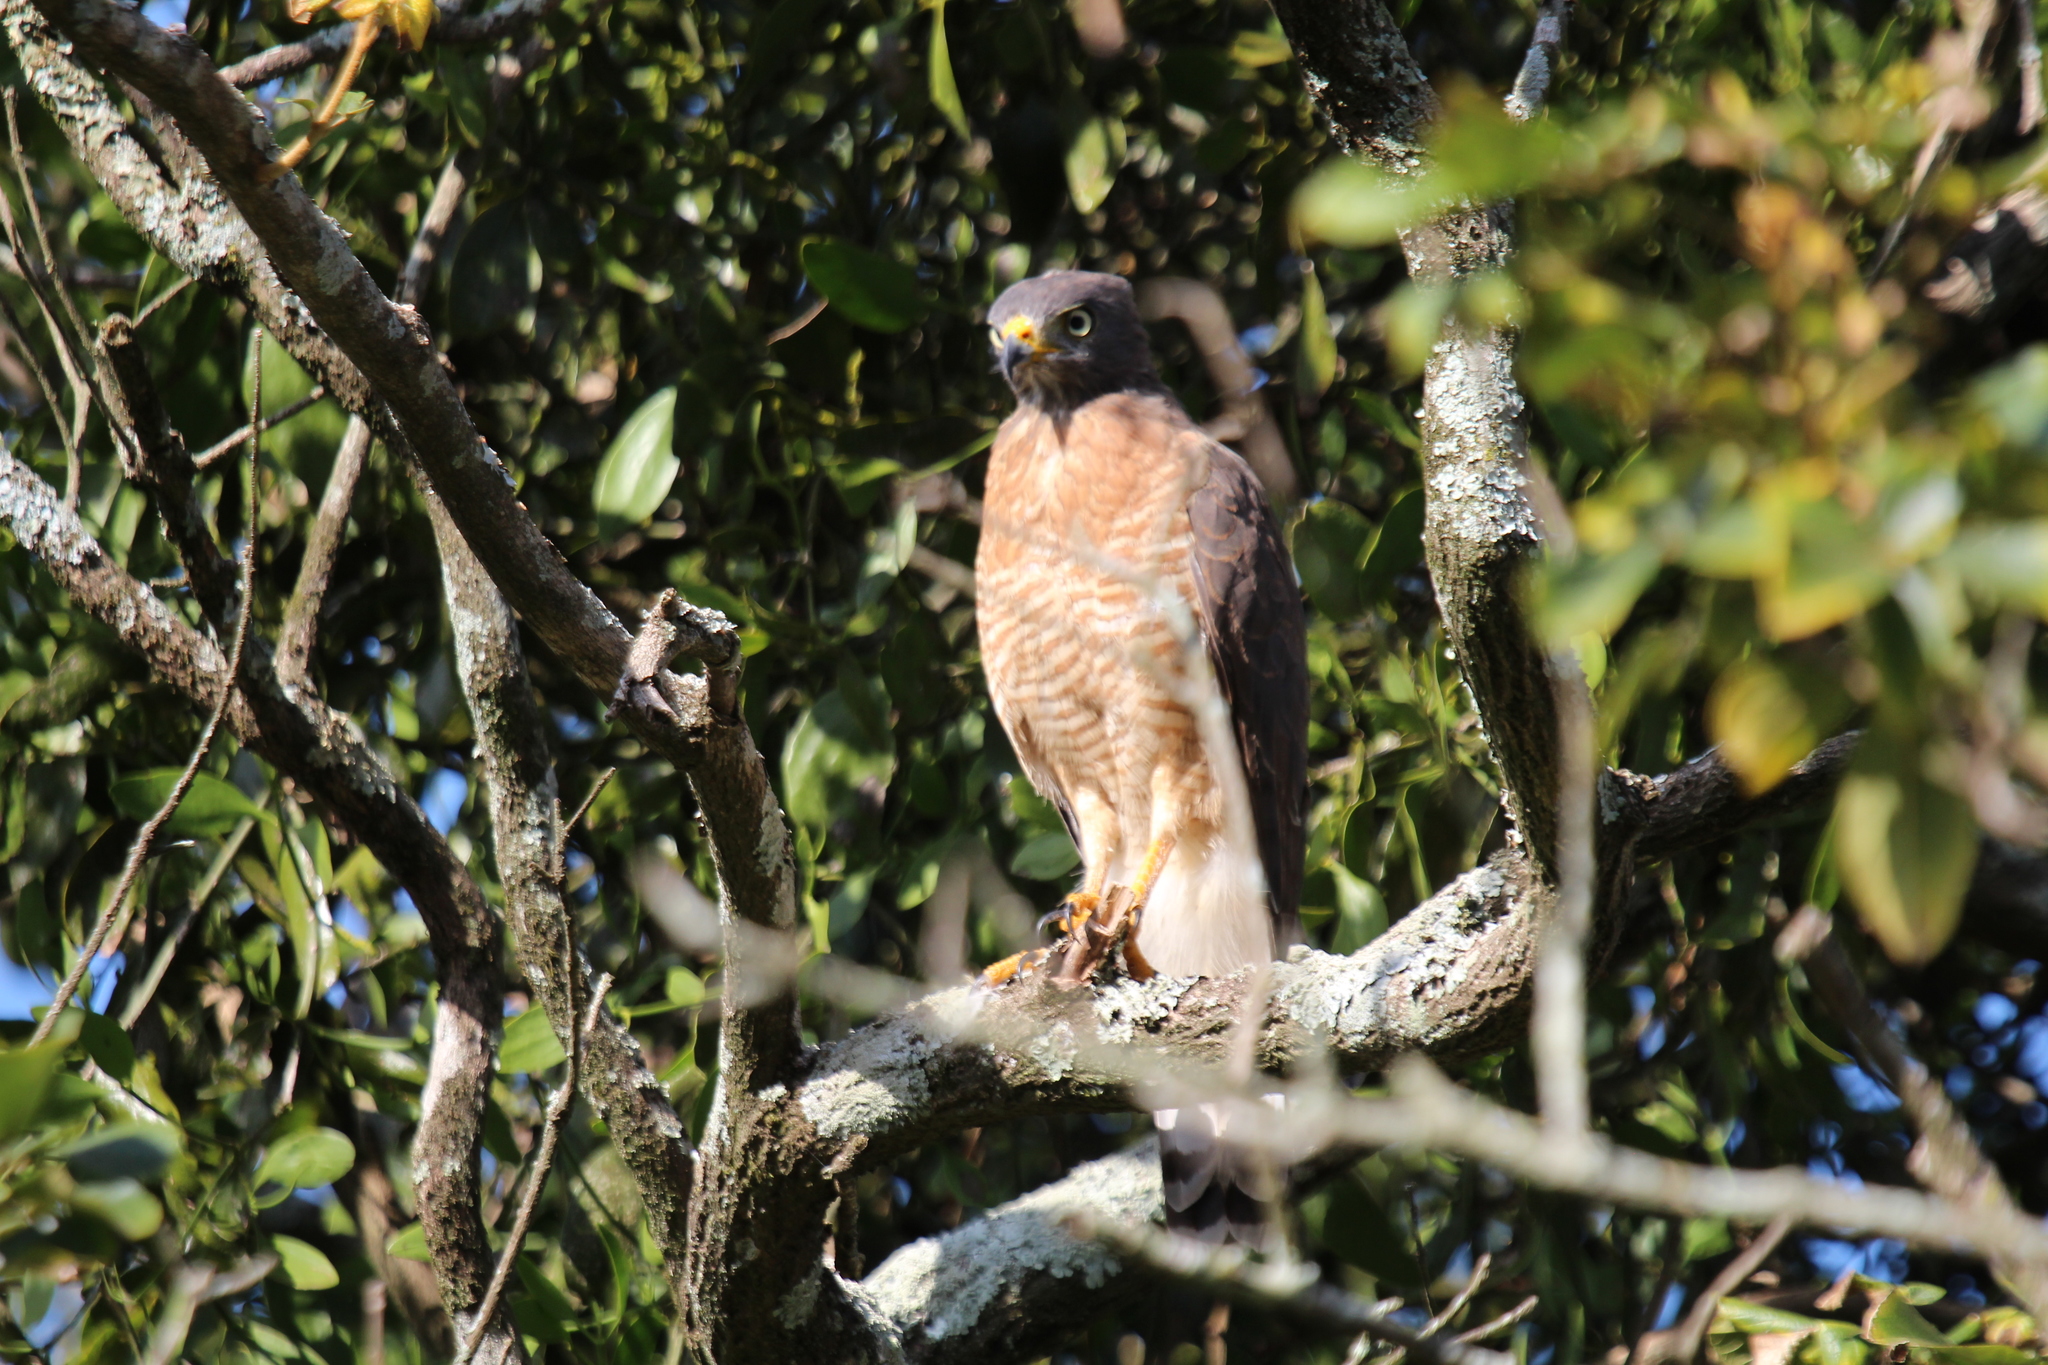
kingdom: Animalia
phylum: Chordata
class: Aves
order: Accipitriformes
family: Accipitridae
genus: Rupornis
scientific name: Rupornis magnirostris
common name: Roadside hawk
